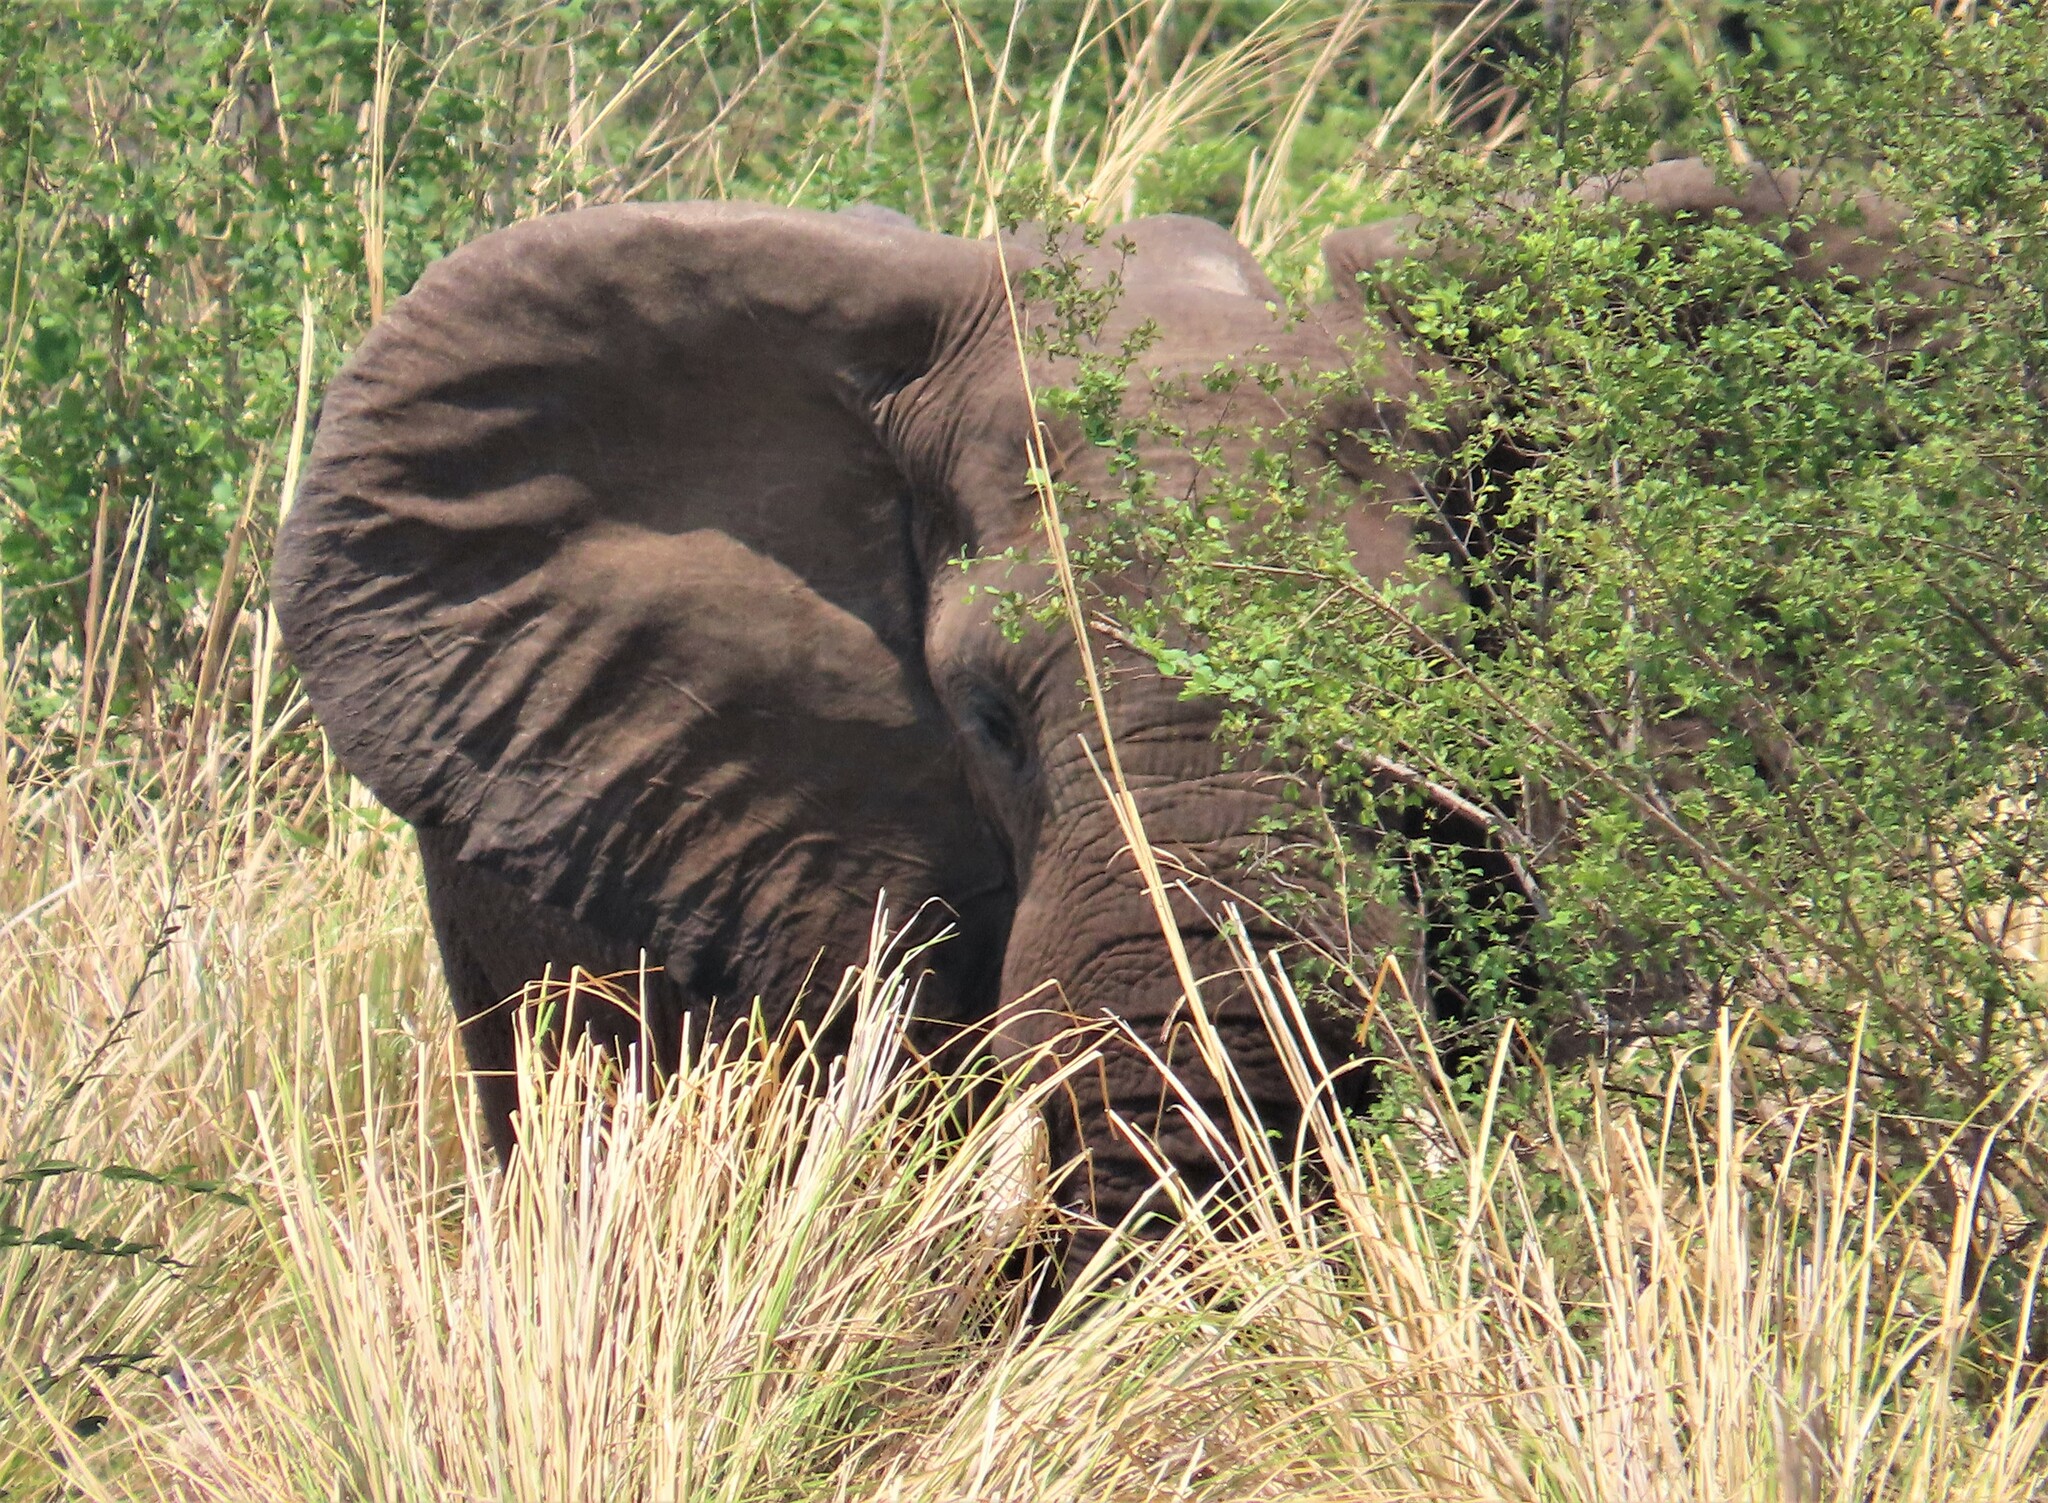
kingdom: Animalia
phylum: Chordata
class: Mammalia
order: Proboscidea
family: Elephantidae
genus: Loxodonta
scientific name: Loxodonta africana
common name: African elephant
